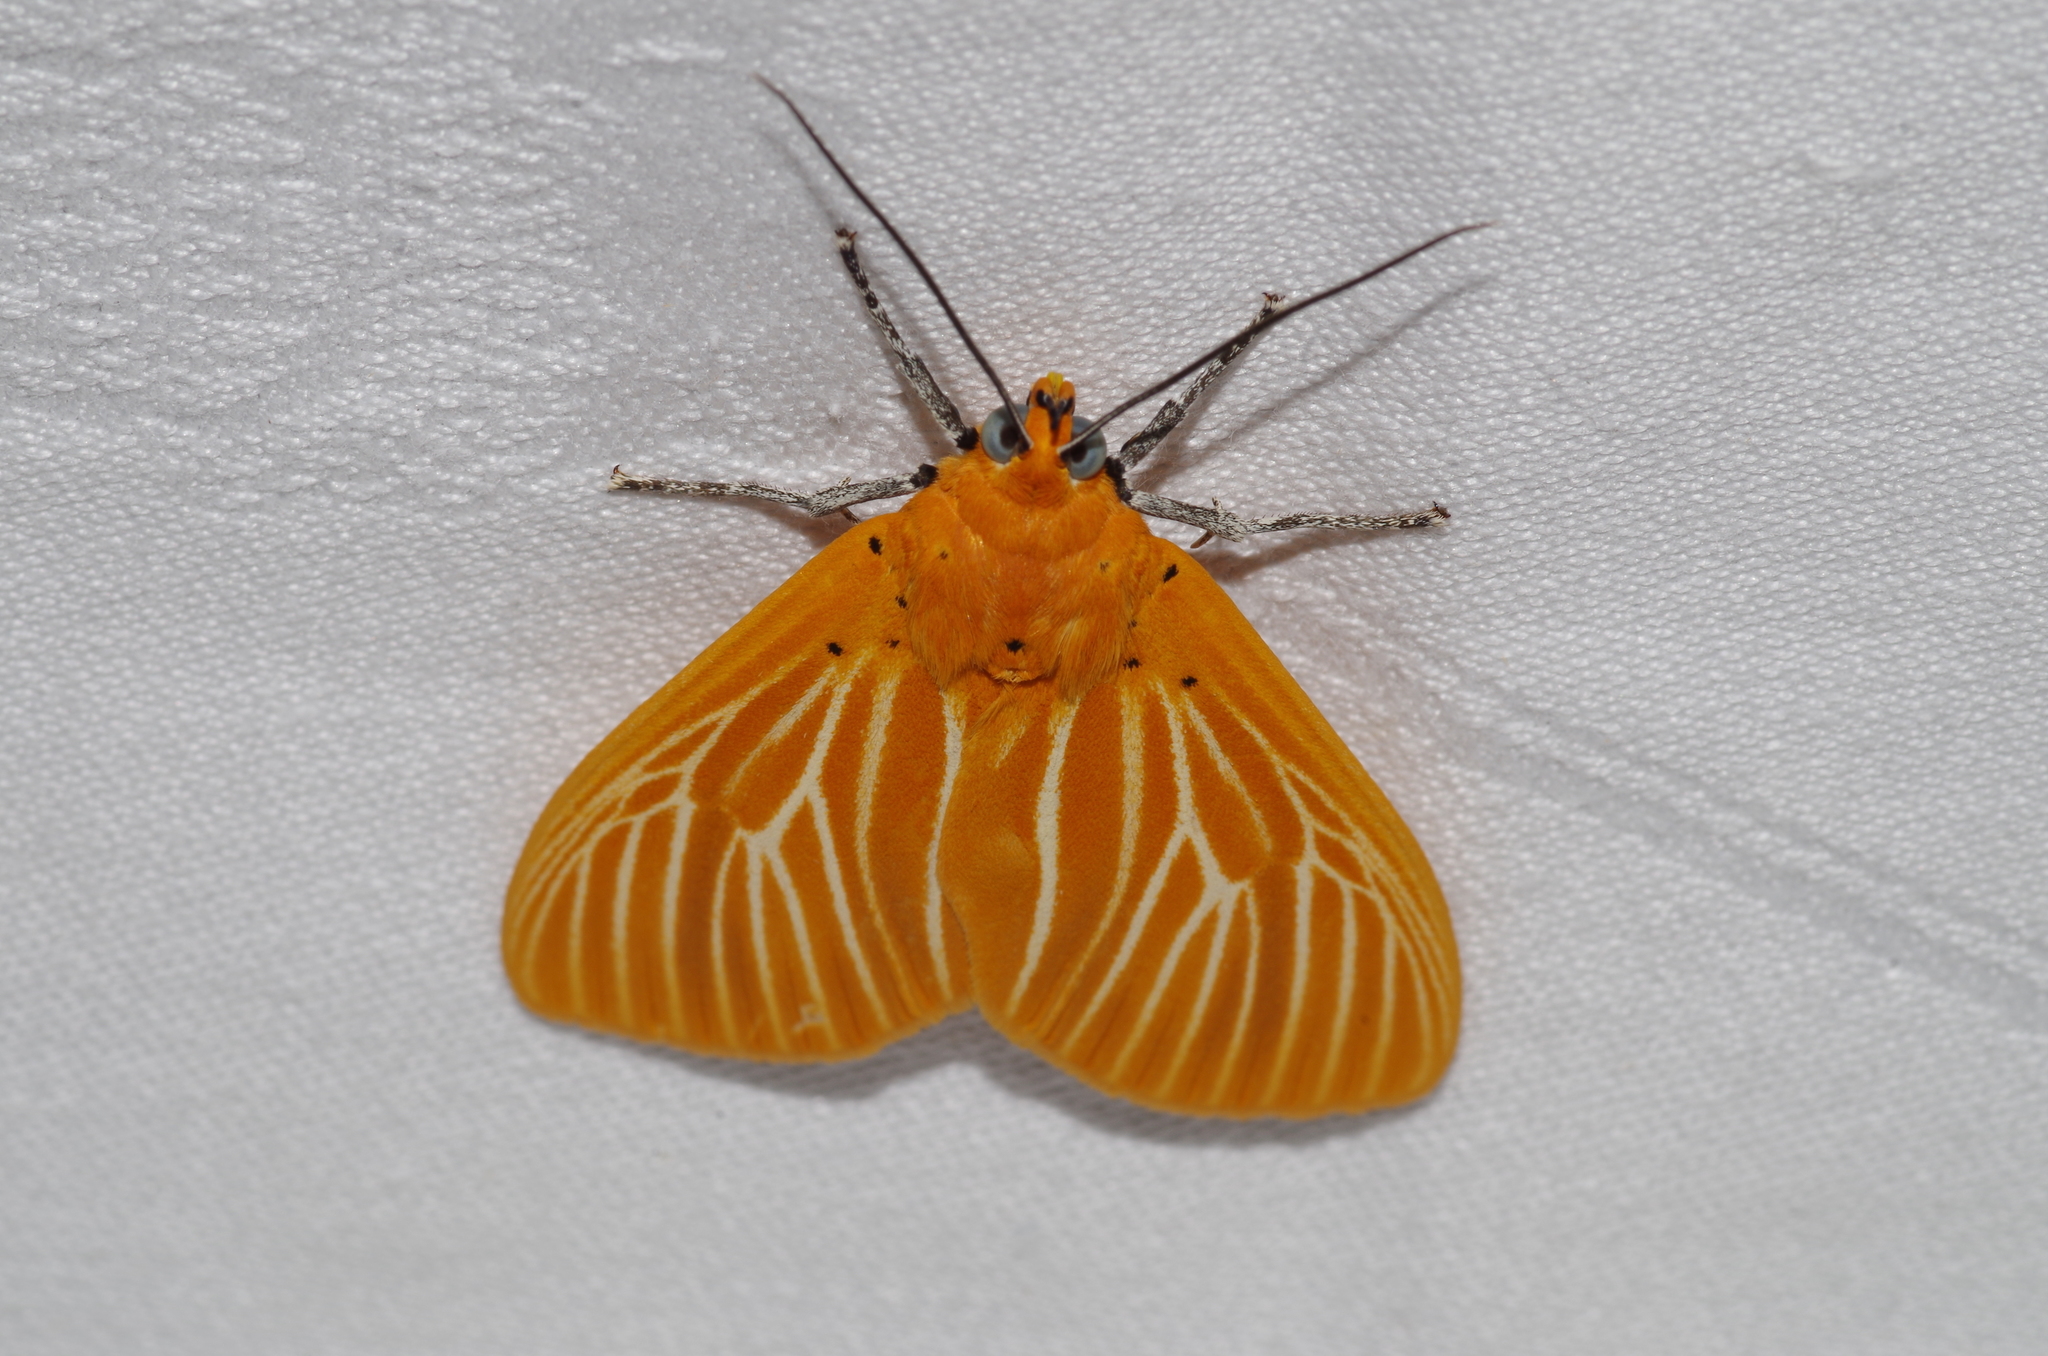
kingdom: Animalia
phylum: Arthropoda
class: Insecta
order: Lepidoptera
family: Erebidae
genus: Asota
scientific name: Asota egens
